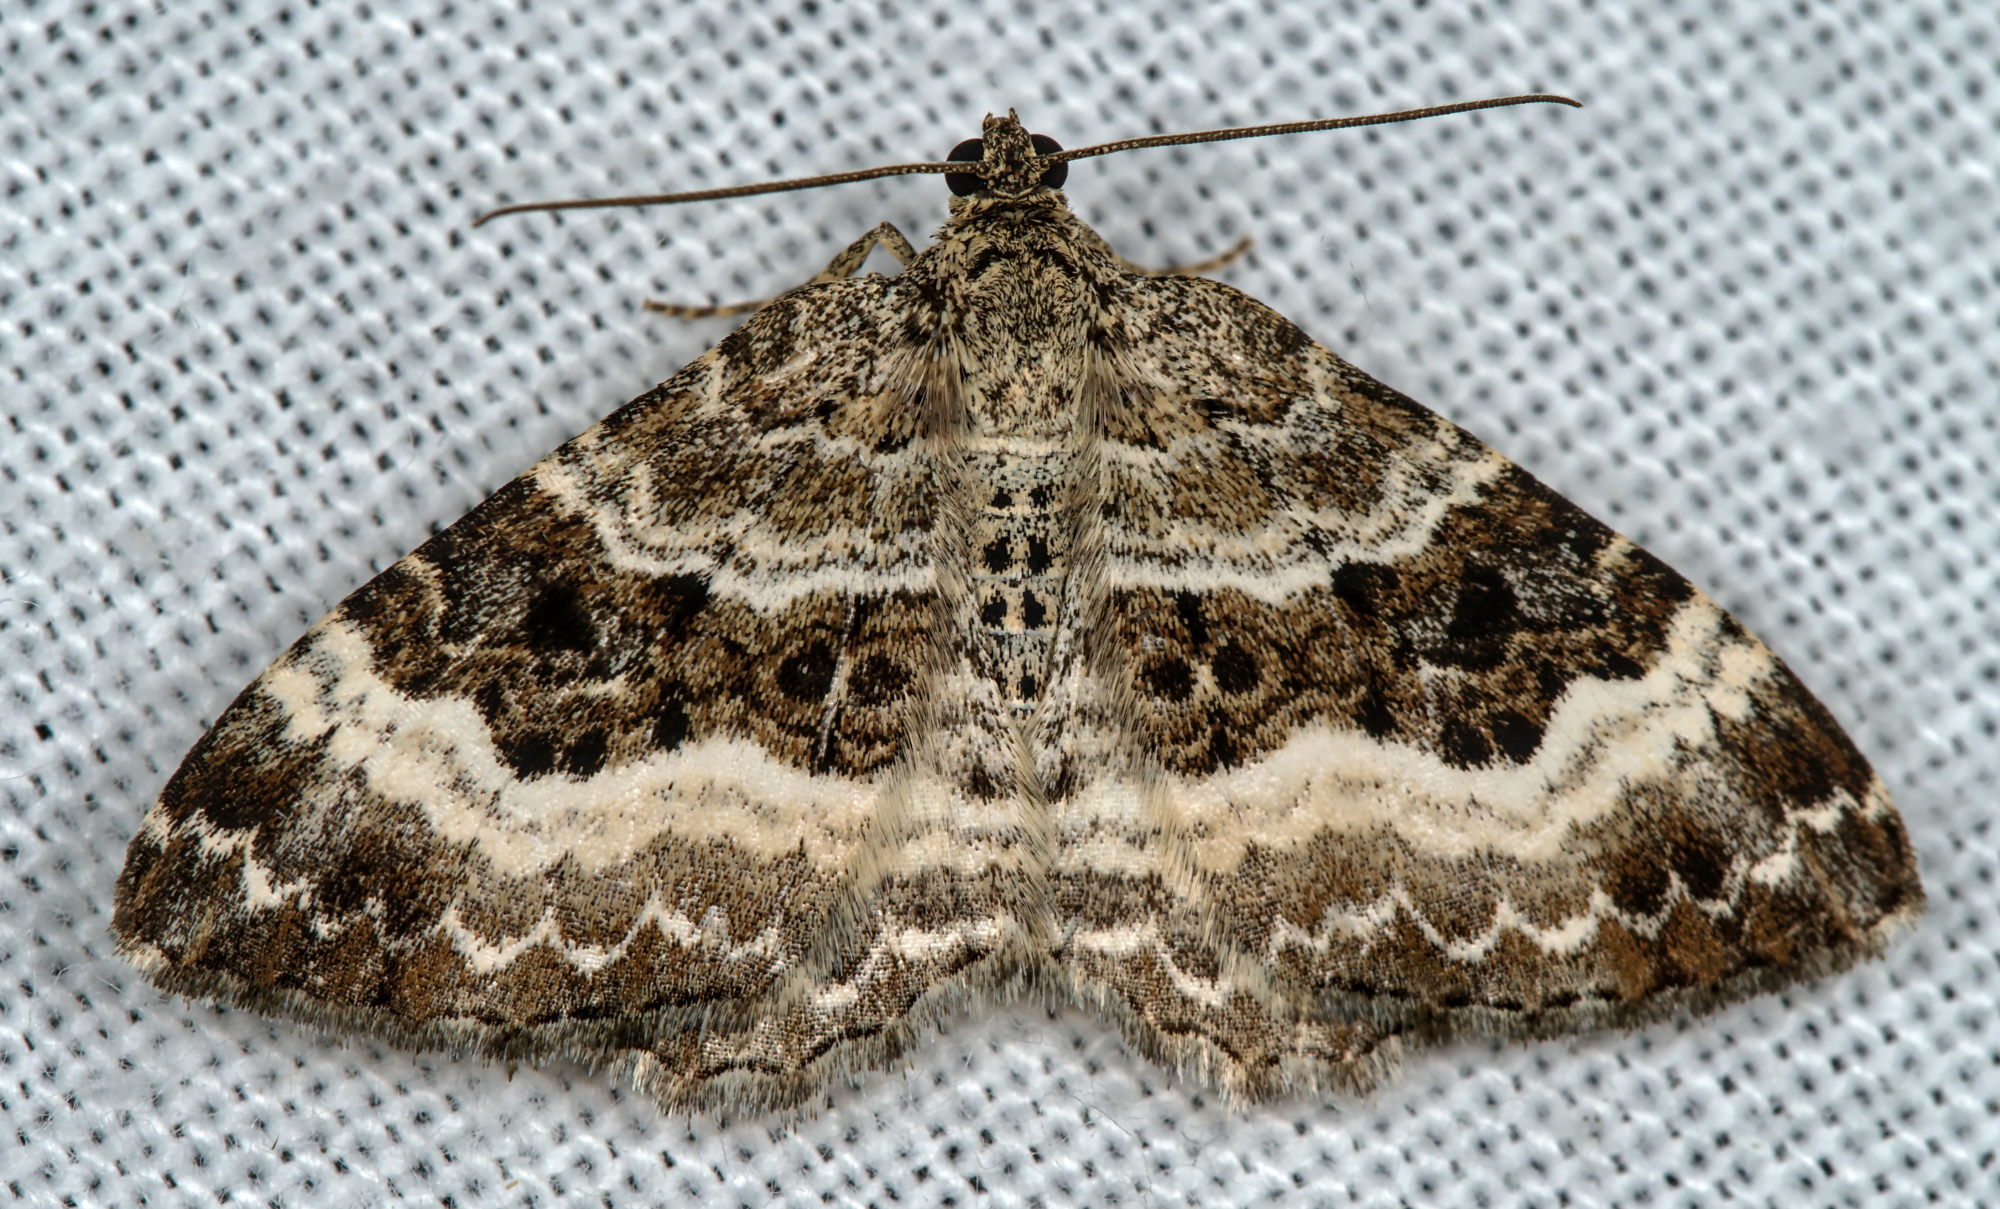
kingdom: Animalia
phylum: Arthropoda
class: Insecta
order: Lepidoptera
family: Geometridae
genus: Epirrhoe
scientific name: Epirrhoe alternata
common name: Common carpet
